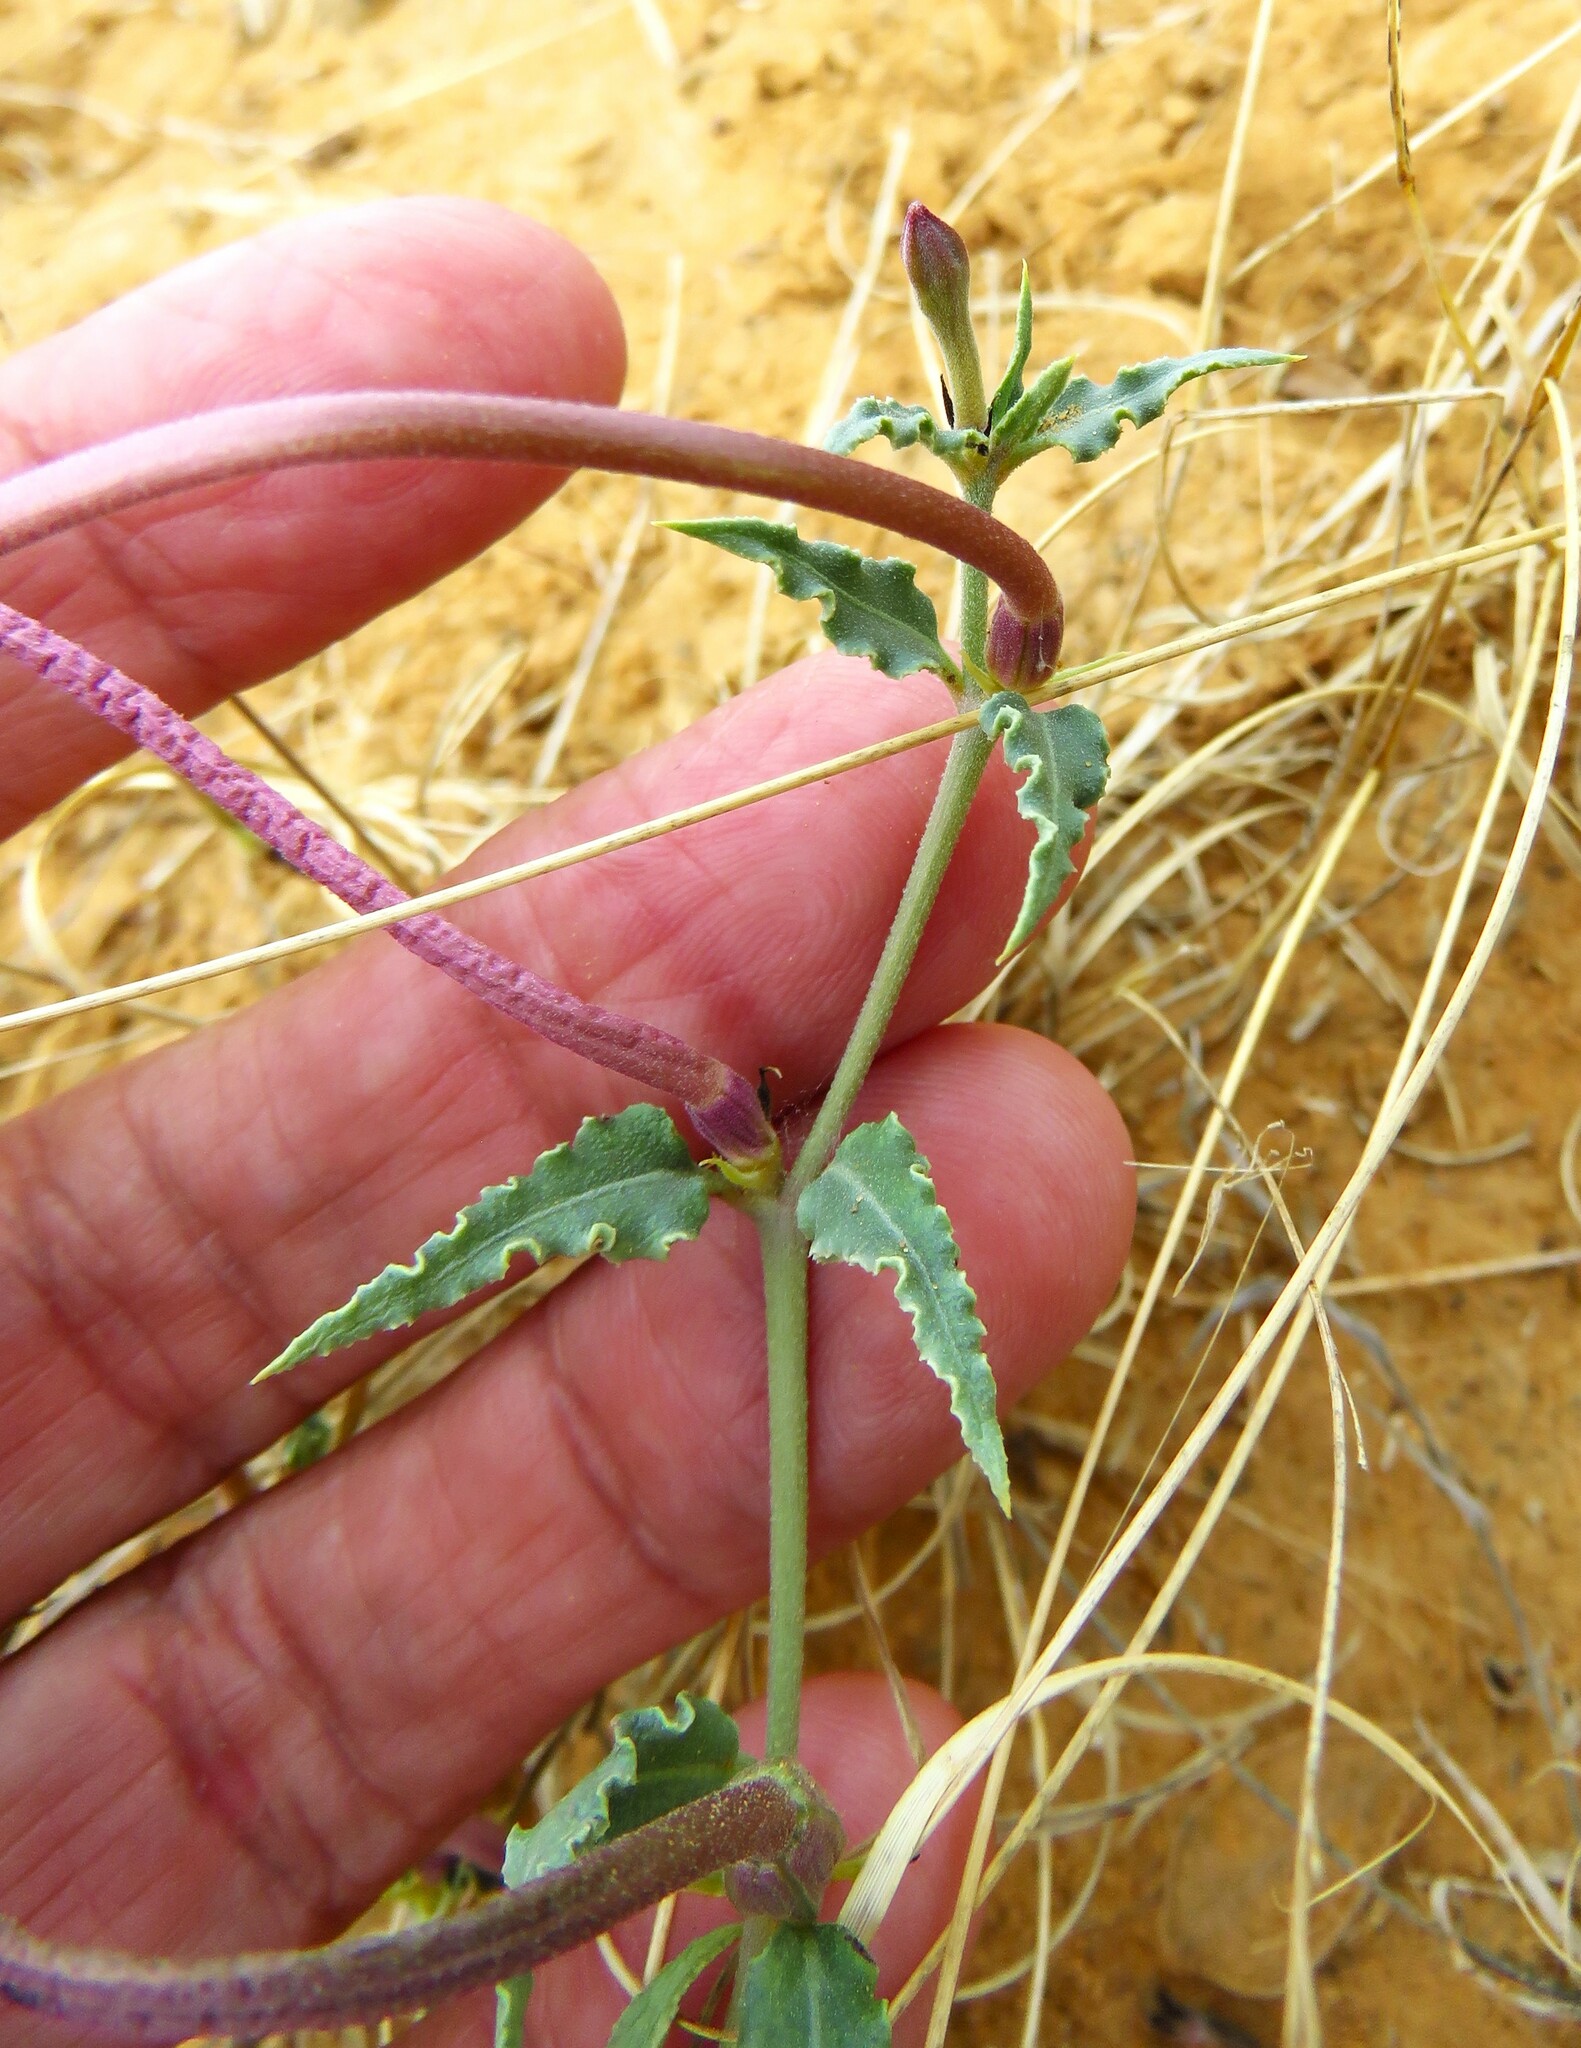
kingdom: Plantae
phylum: Tracheophyta
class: Magnoliopsida
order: Caryophyllales
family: Nyctaginaceae
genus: Acleisanthes
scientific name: Acleisanthes longiflora
